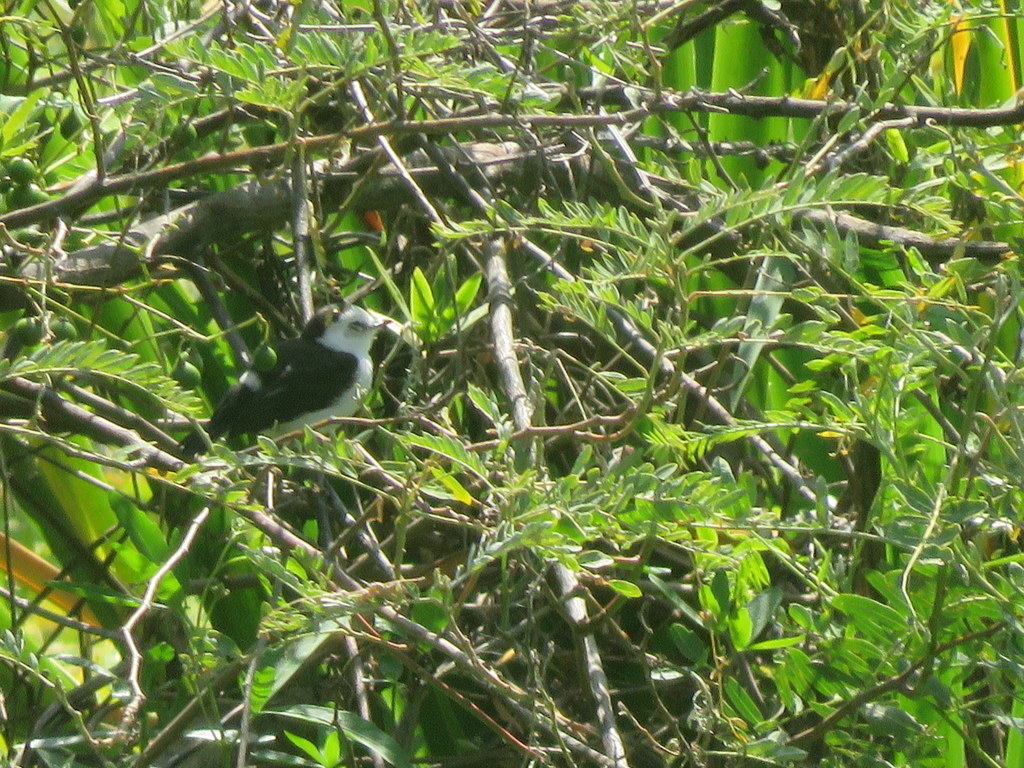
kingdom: Animalia
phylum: Chordata
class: Aves
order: Passeriformes
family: Tyrannidae
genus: Fluvicola
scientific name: Fluvicola pica
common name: Pied water-tyrant
